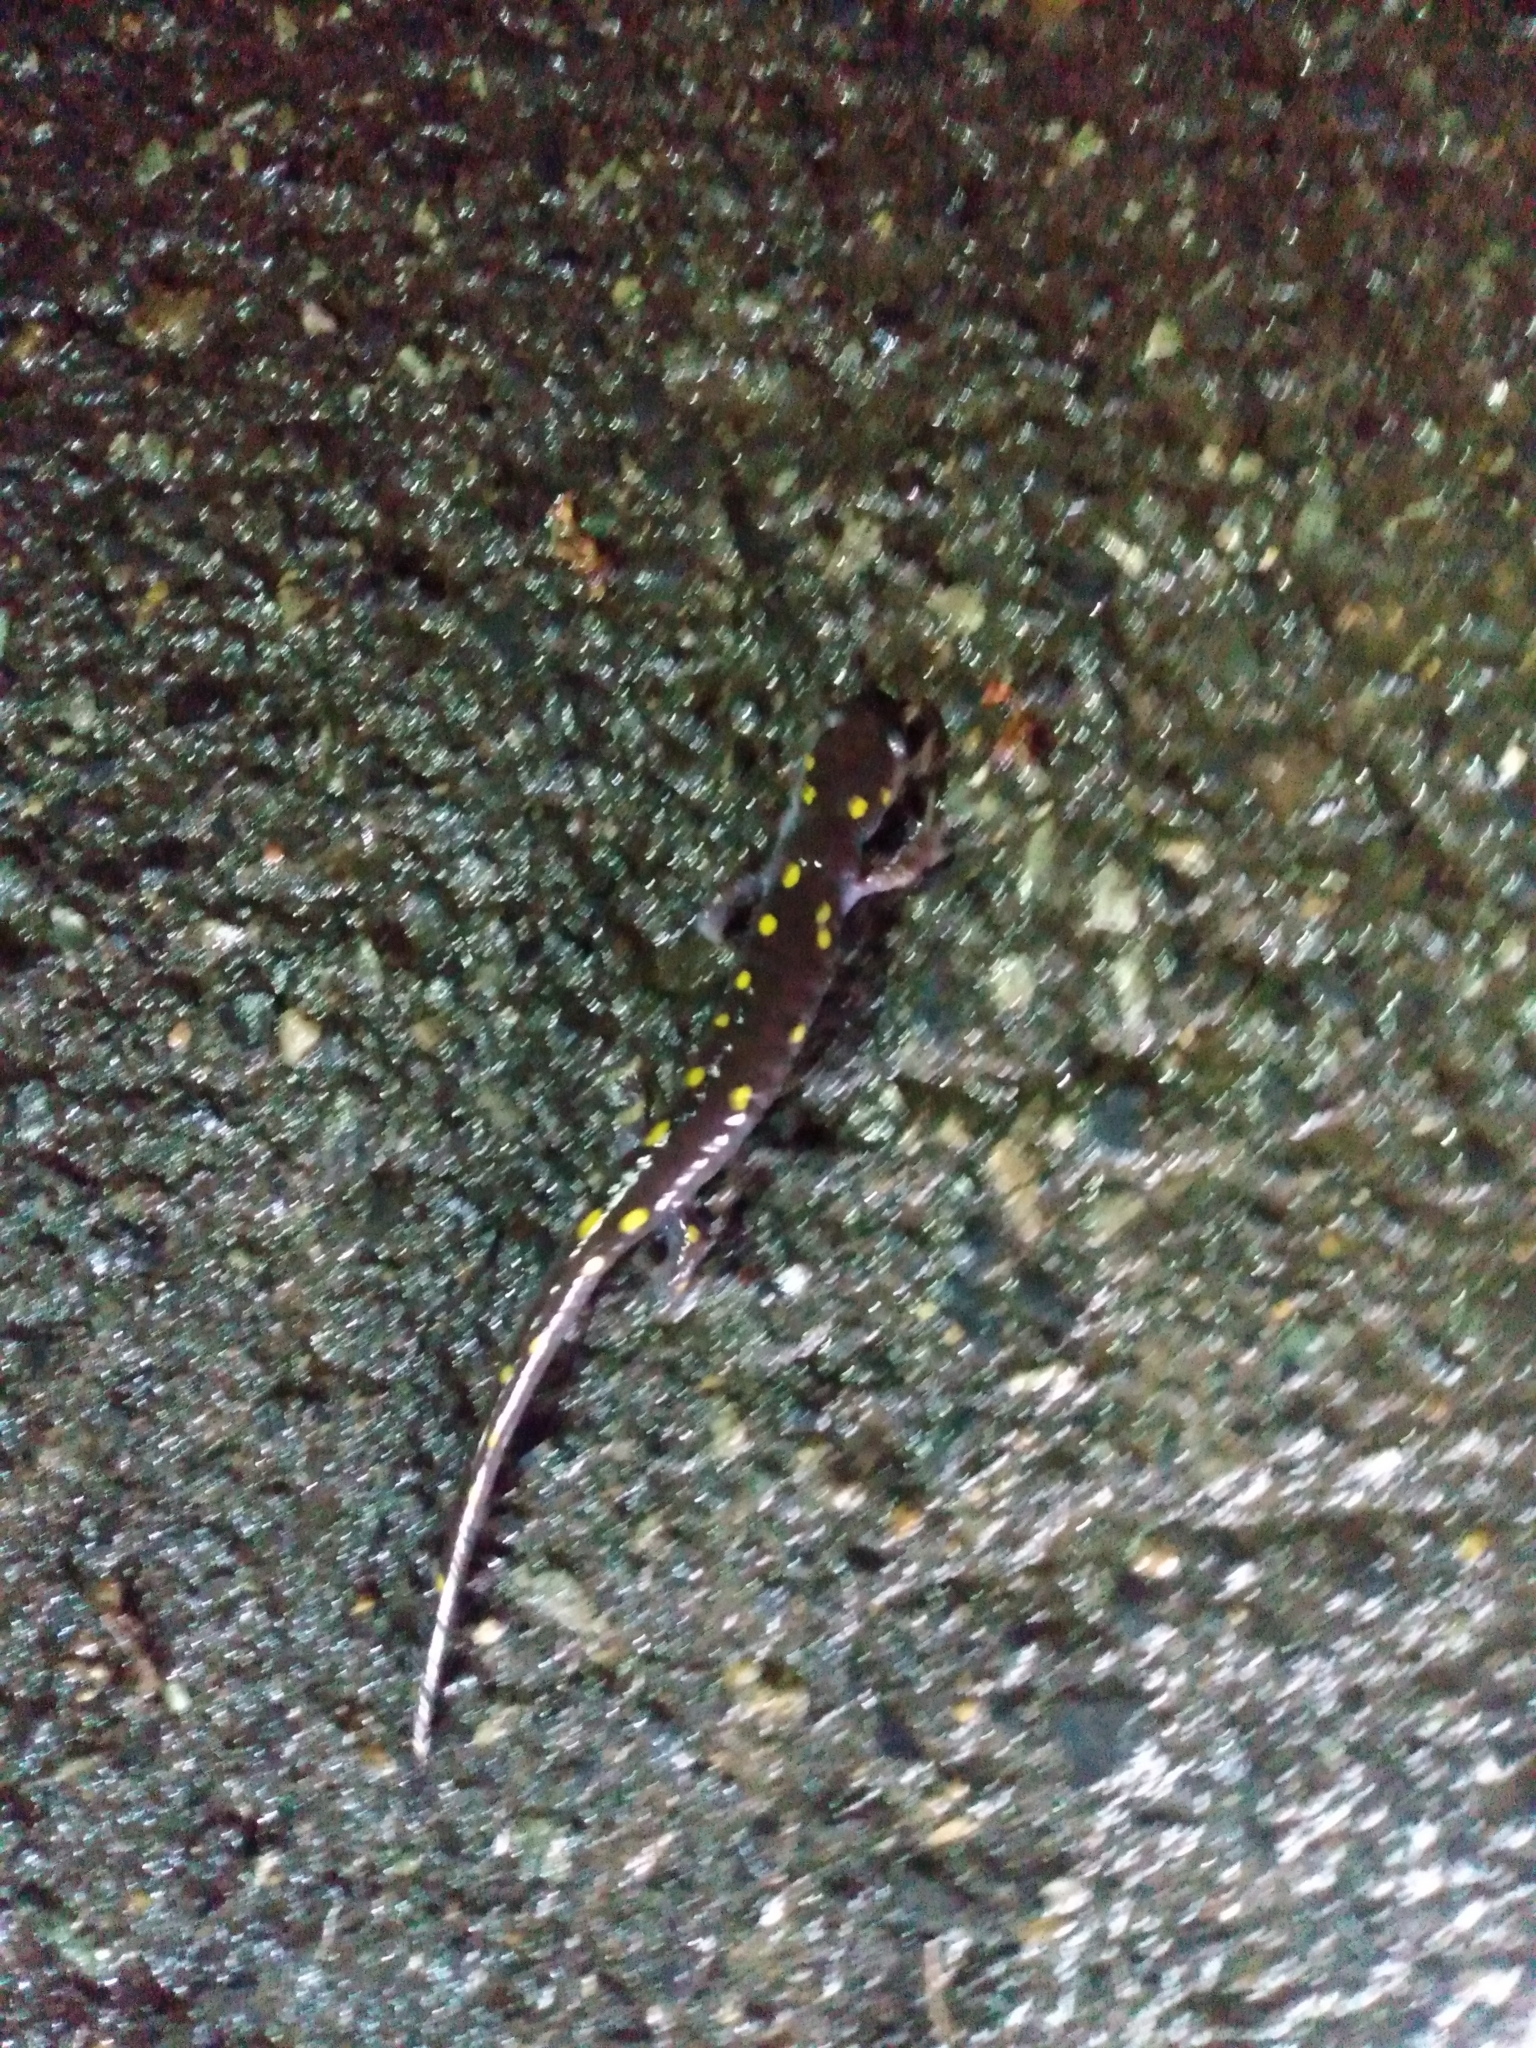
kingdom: Animalia
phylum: Chordata
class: Amphibia
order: Caudata
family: Ambystomatidae
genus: Ambystoma
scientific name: Ambystoma maculatum
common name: Spotted salamander
